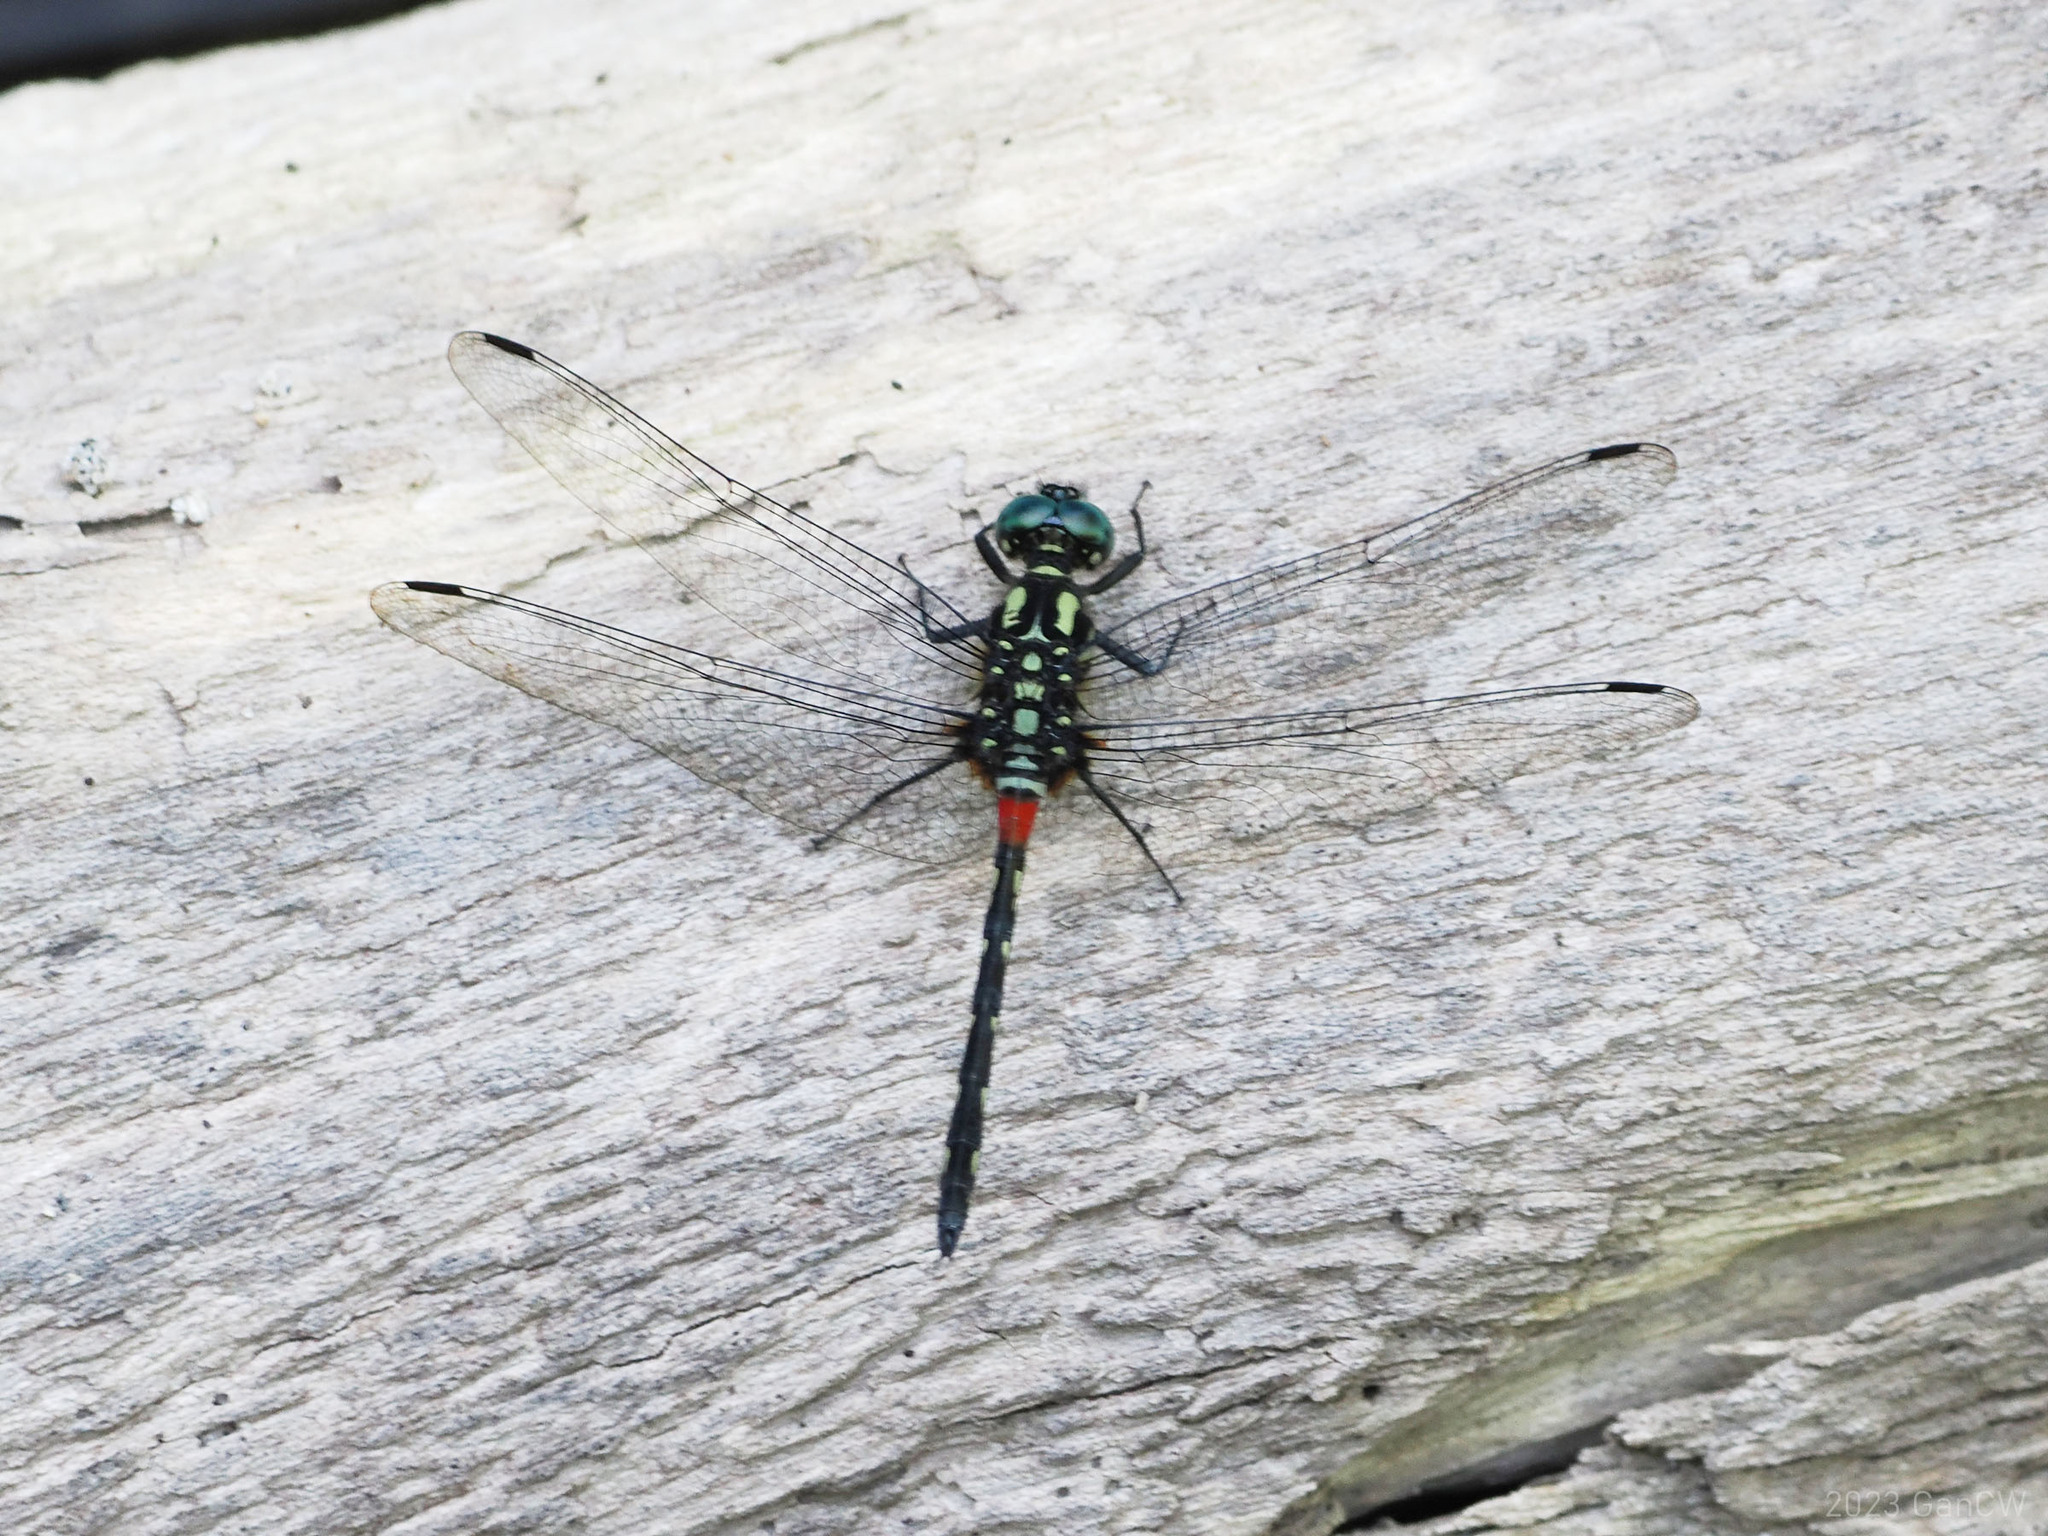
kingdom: Animalia
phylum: Arthropoda
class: Insecta
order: Odonata
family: Libellulidae
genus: Diplacina
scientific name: Diplacina bolivari
